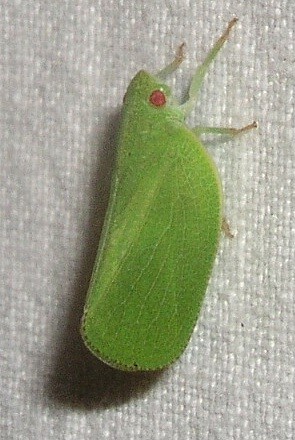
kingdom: Animalia
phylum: Arthropoda
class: Insecta
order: Hemiptera
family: Acanaloniidae
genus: Acanalonia
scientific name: Acanalonia conica
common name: Green cone-headed planthopper
